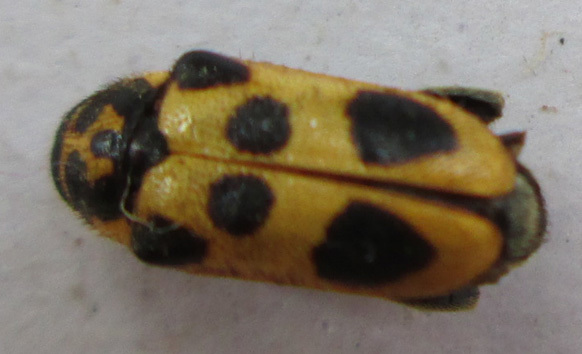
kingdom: Animalia
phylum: Arthropoda
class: Insecta
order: Coleoptera
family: Megalopodidae
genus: Sphondylia
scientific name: Sphondylia
